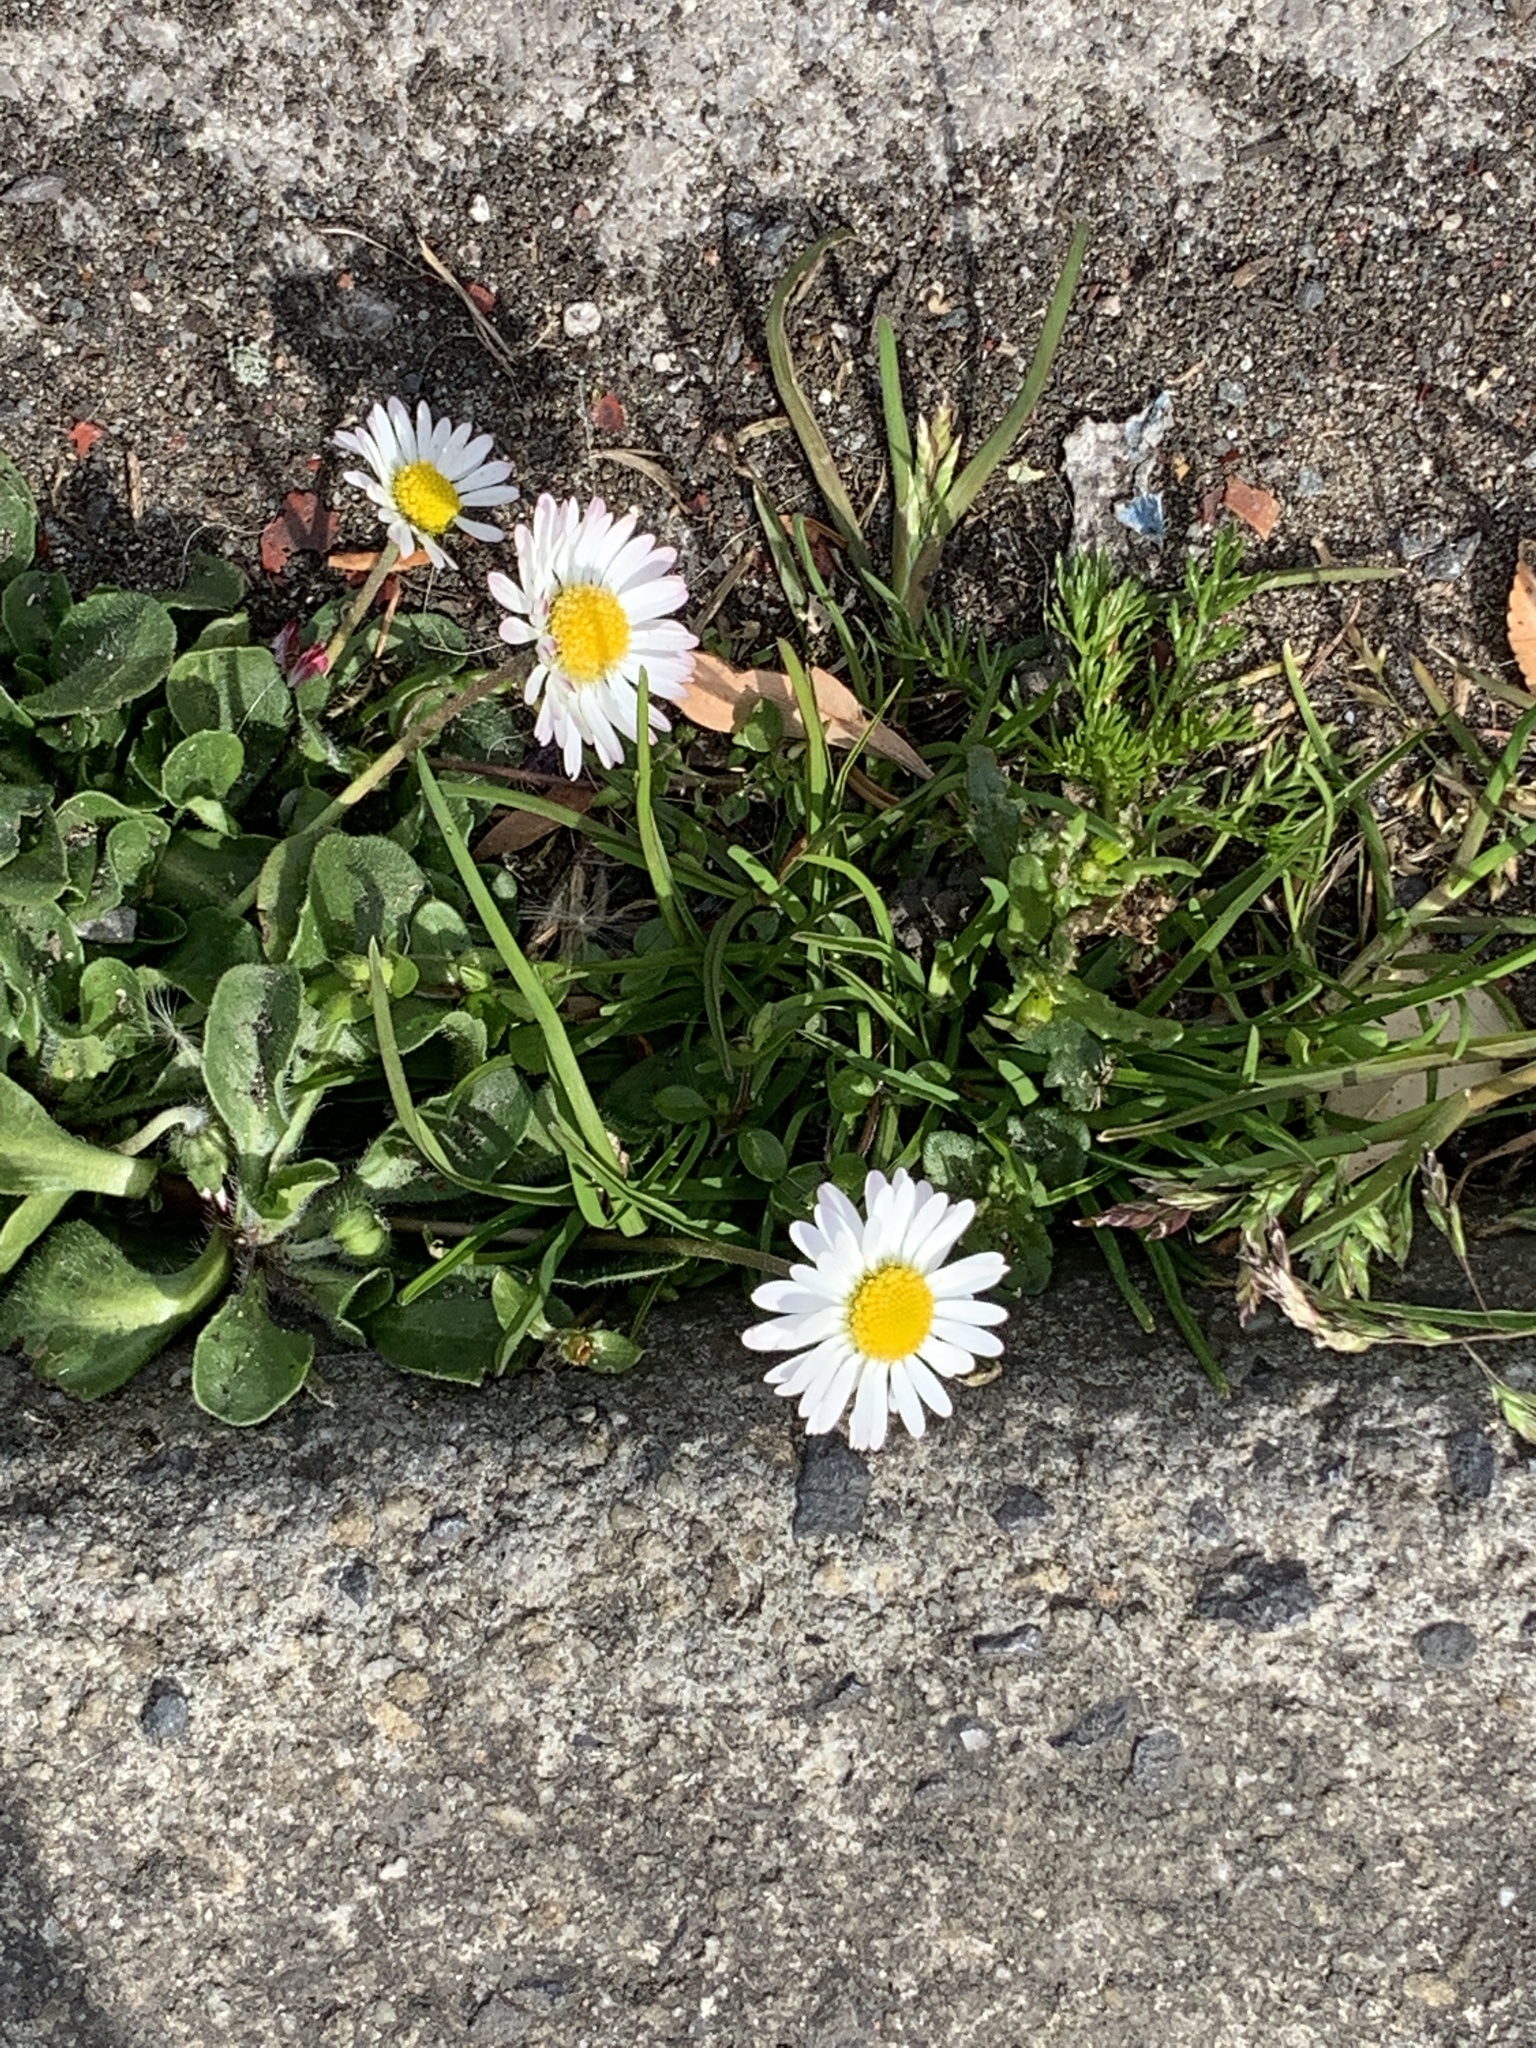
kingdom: Plantae
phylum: Tracheophyta
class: Magnoliopsida
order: Asterales
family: Asteraceae
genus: Bellis
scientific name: Bellis perennis
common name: Lawndaisy
